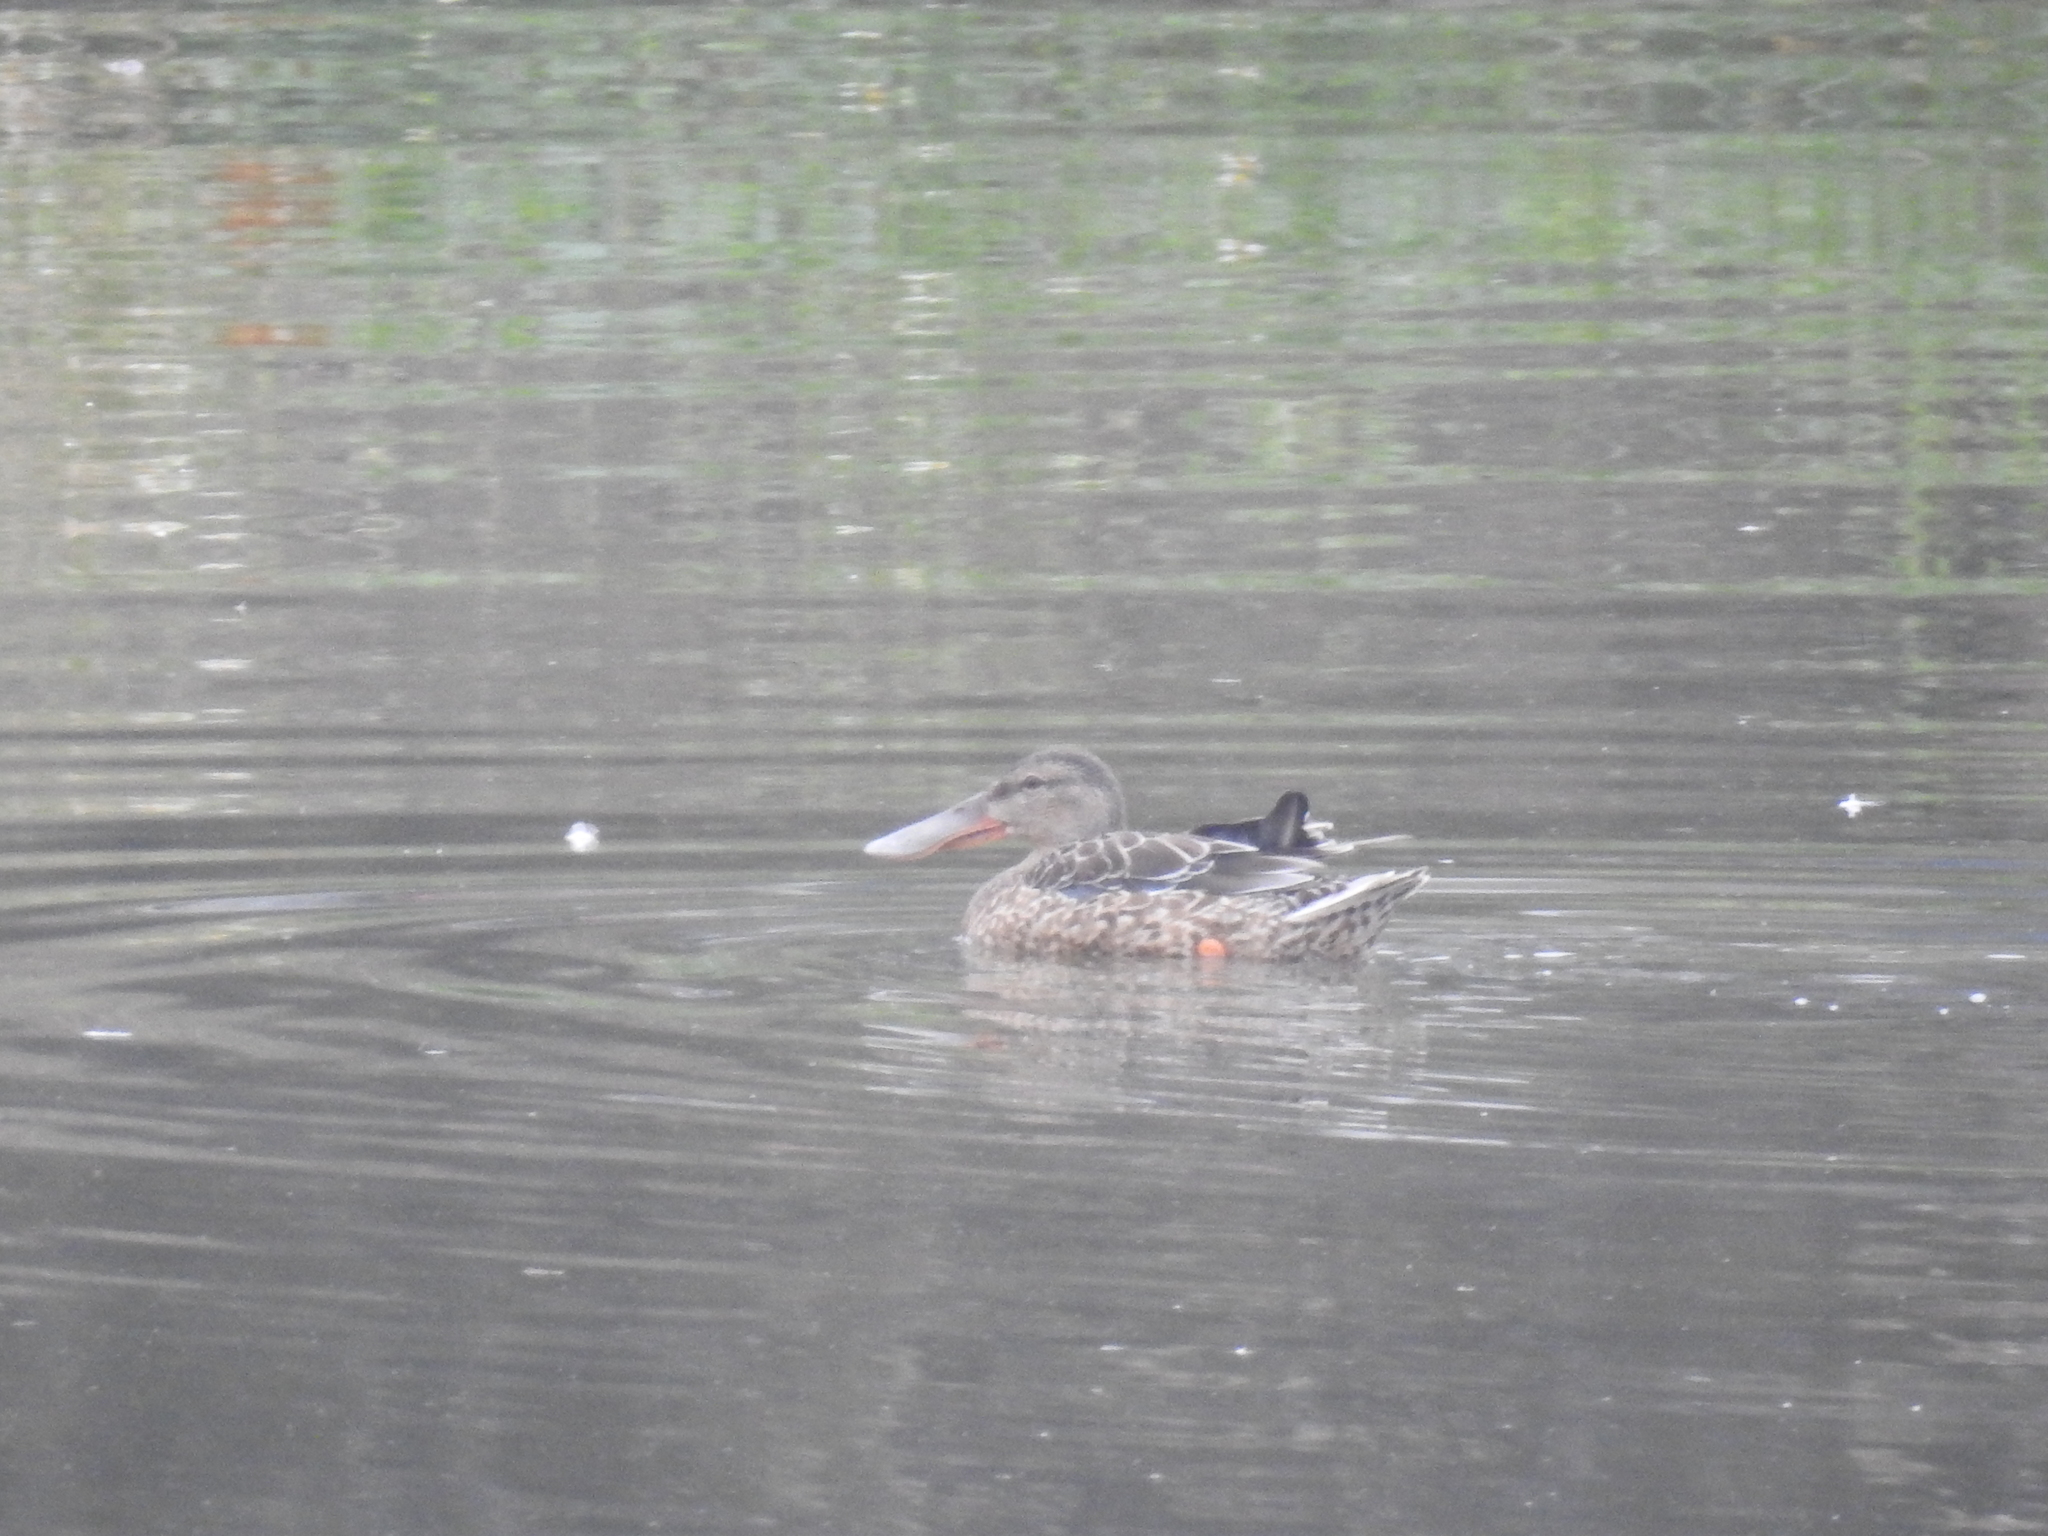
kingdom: Animalia
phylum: Chordata
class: Aves
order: Anseriformes
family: Anatidae
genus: Spatula
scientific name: Spatula clypeata
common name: Northern shoveler
